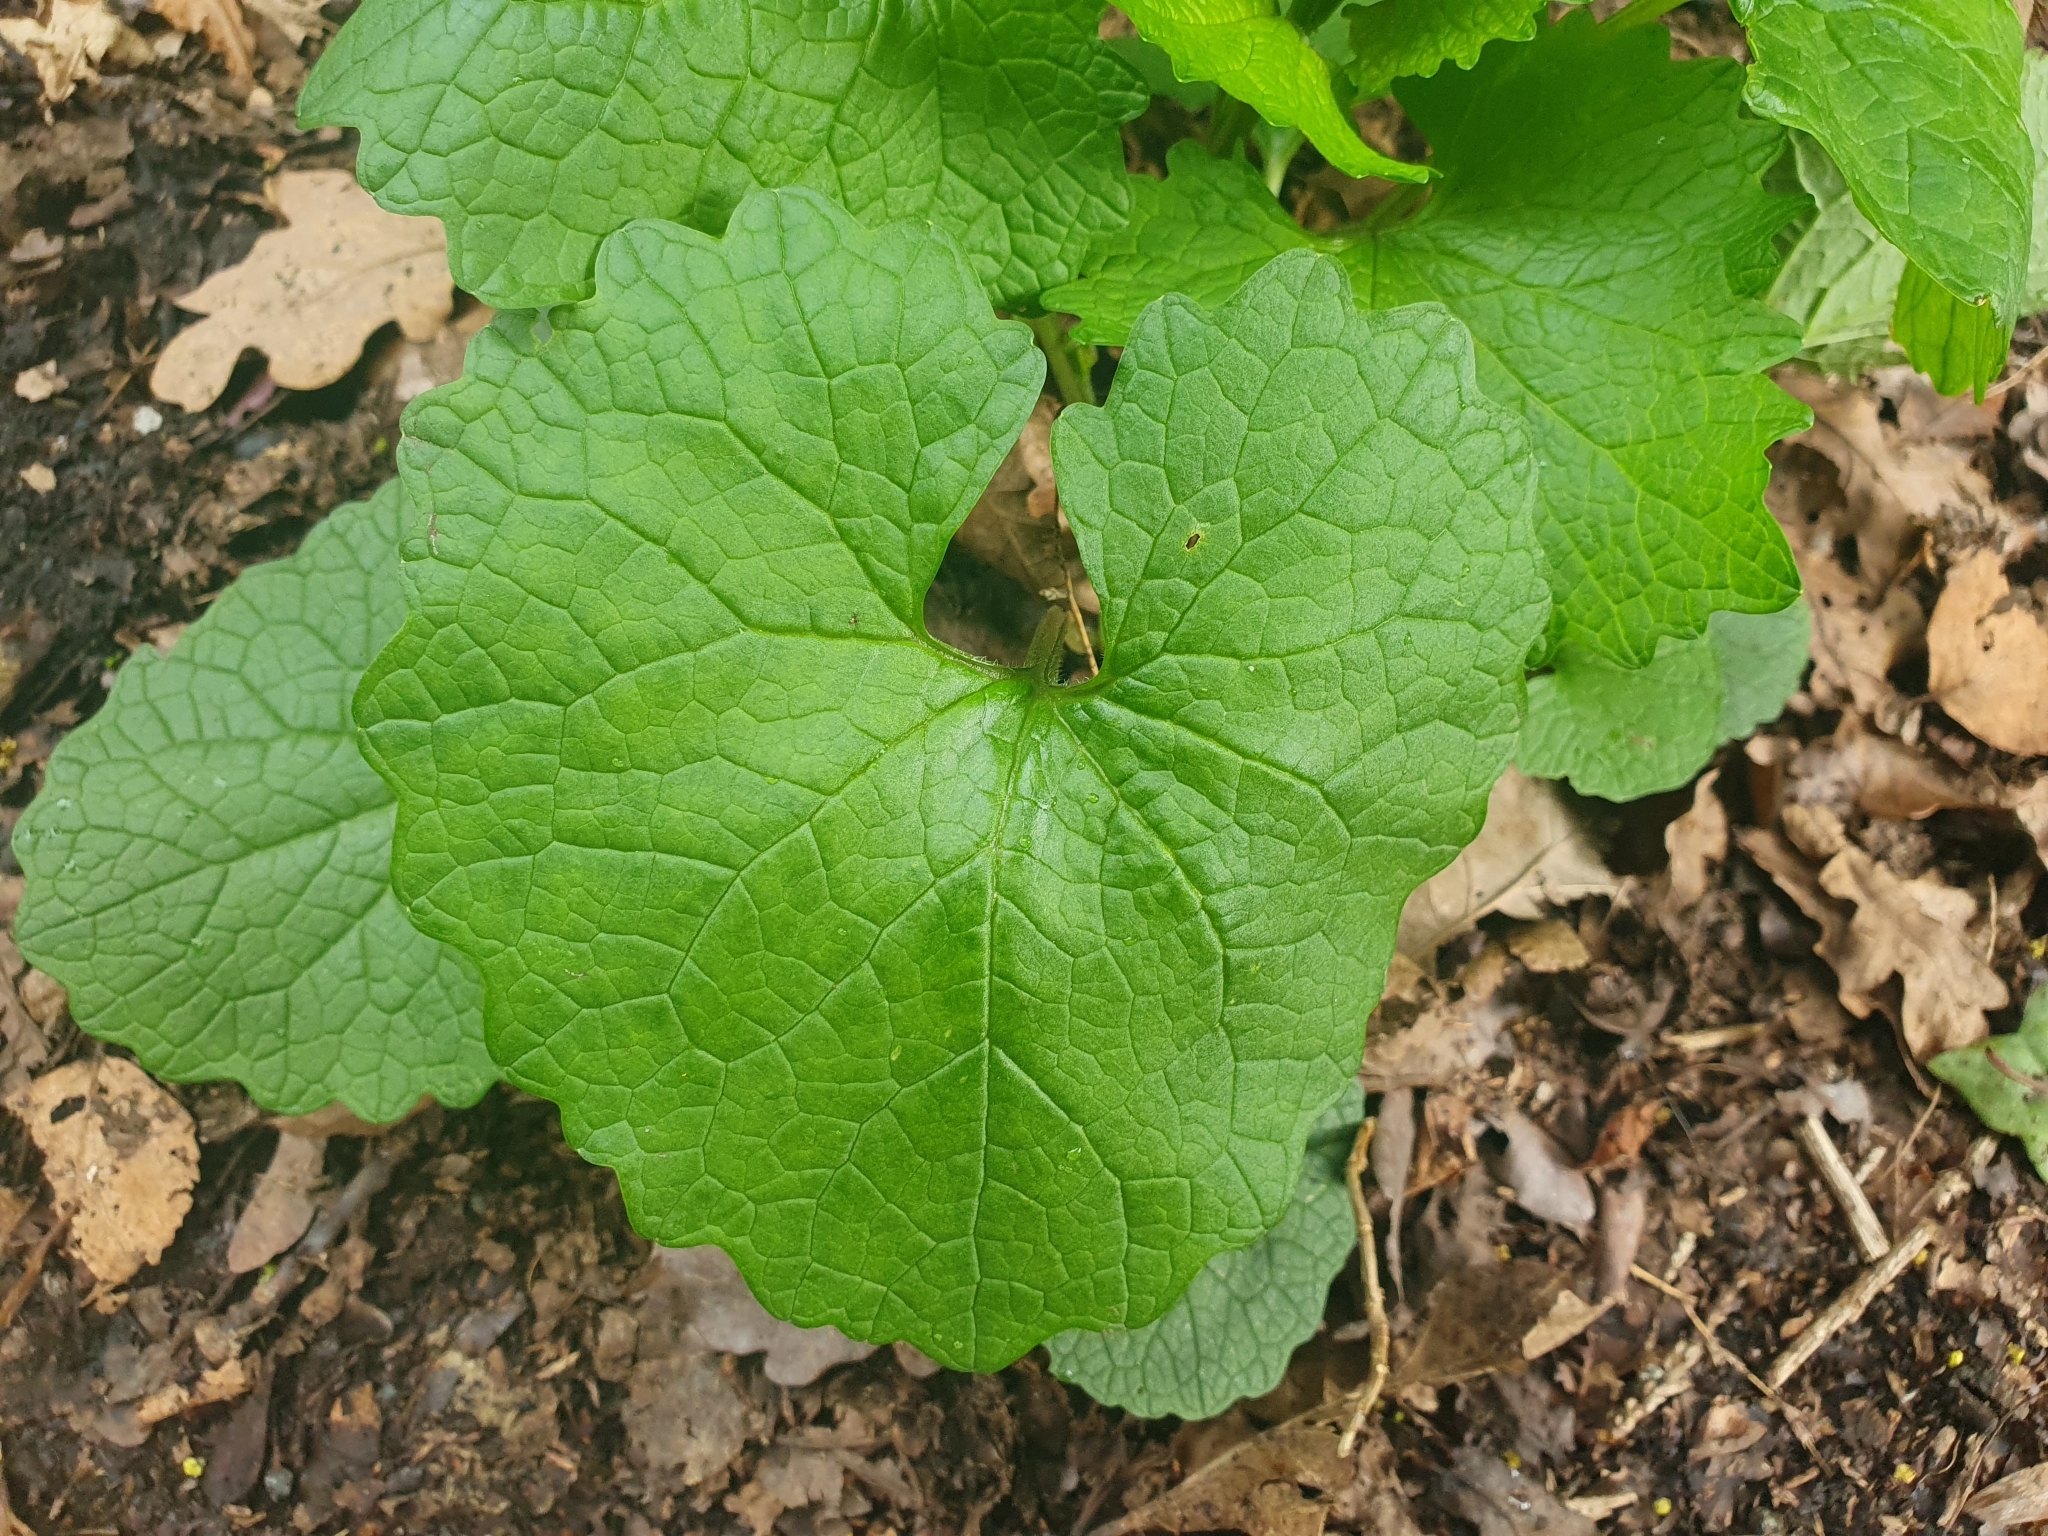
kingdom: Plantae
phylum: Tracheophyta
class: Magnoliopsida
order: Brassicales
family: Brassicaceae
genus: Alliaria
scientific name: Alliaria petiolata
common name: Garlic mustard
